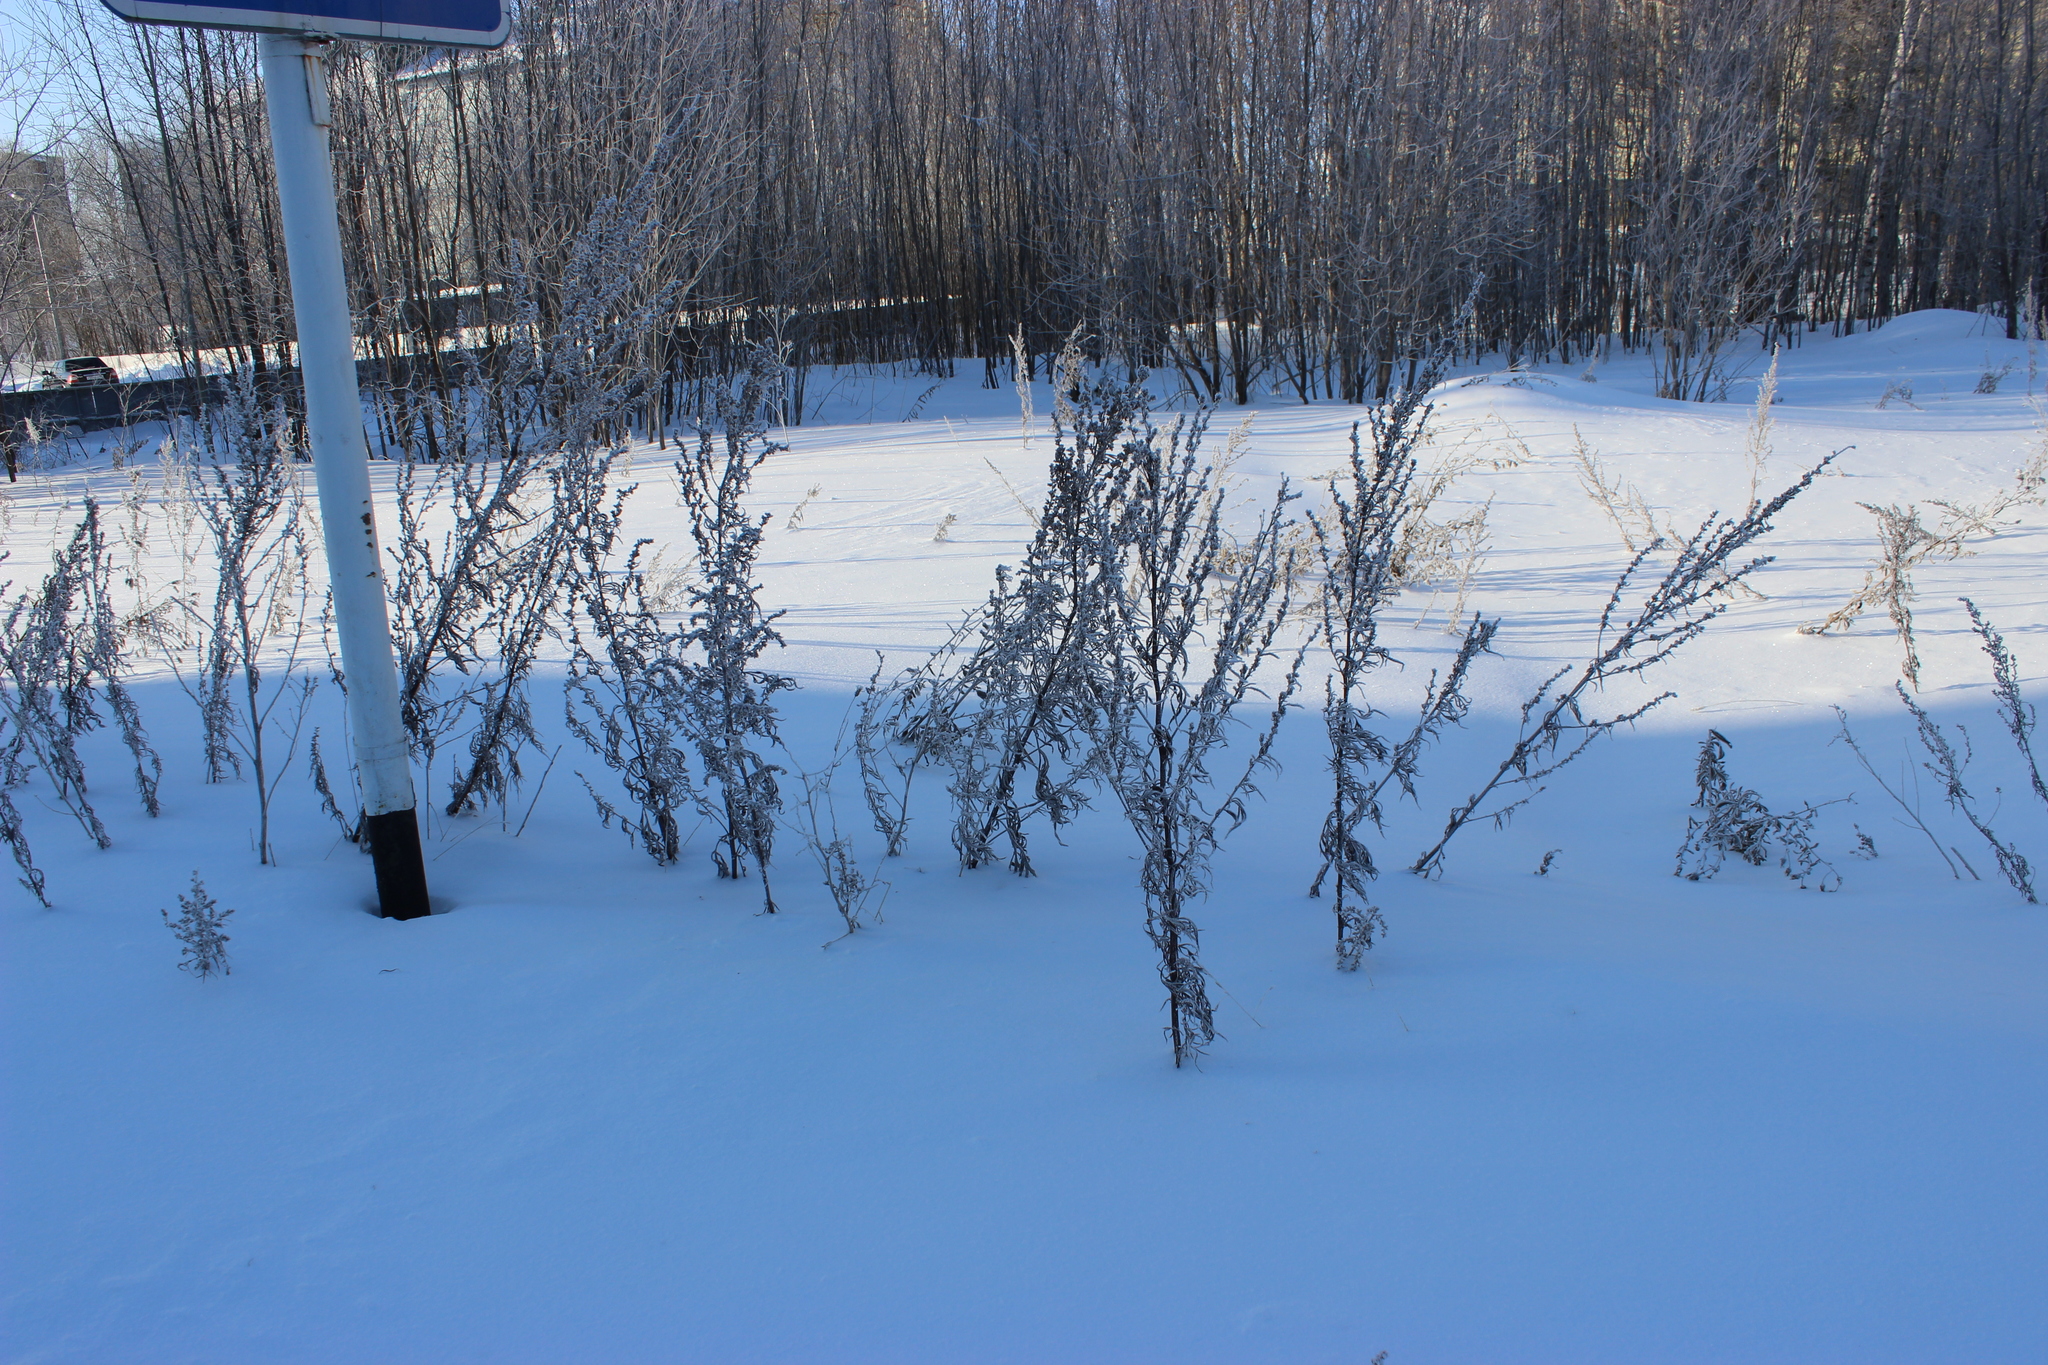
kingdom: Plantae
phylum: Tracheophyta
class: Magnoliopsida
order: Asterales
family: Asteraceae
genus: Artemisia
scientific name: Artemisia vulgaris
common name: Mugwort
